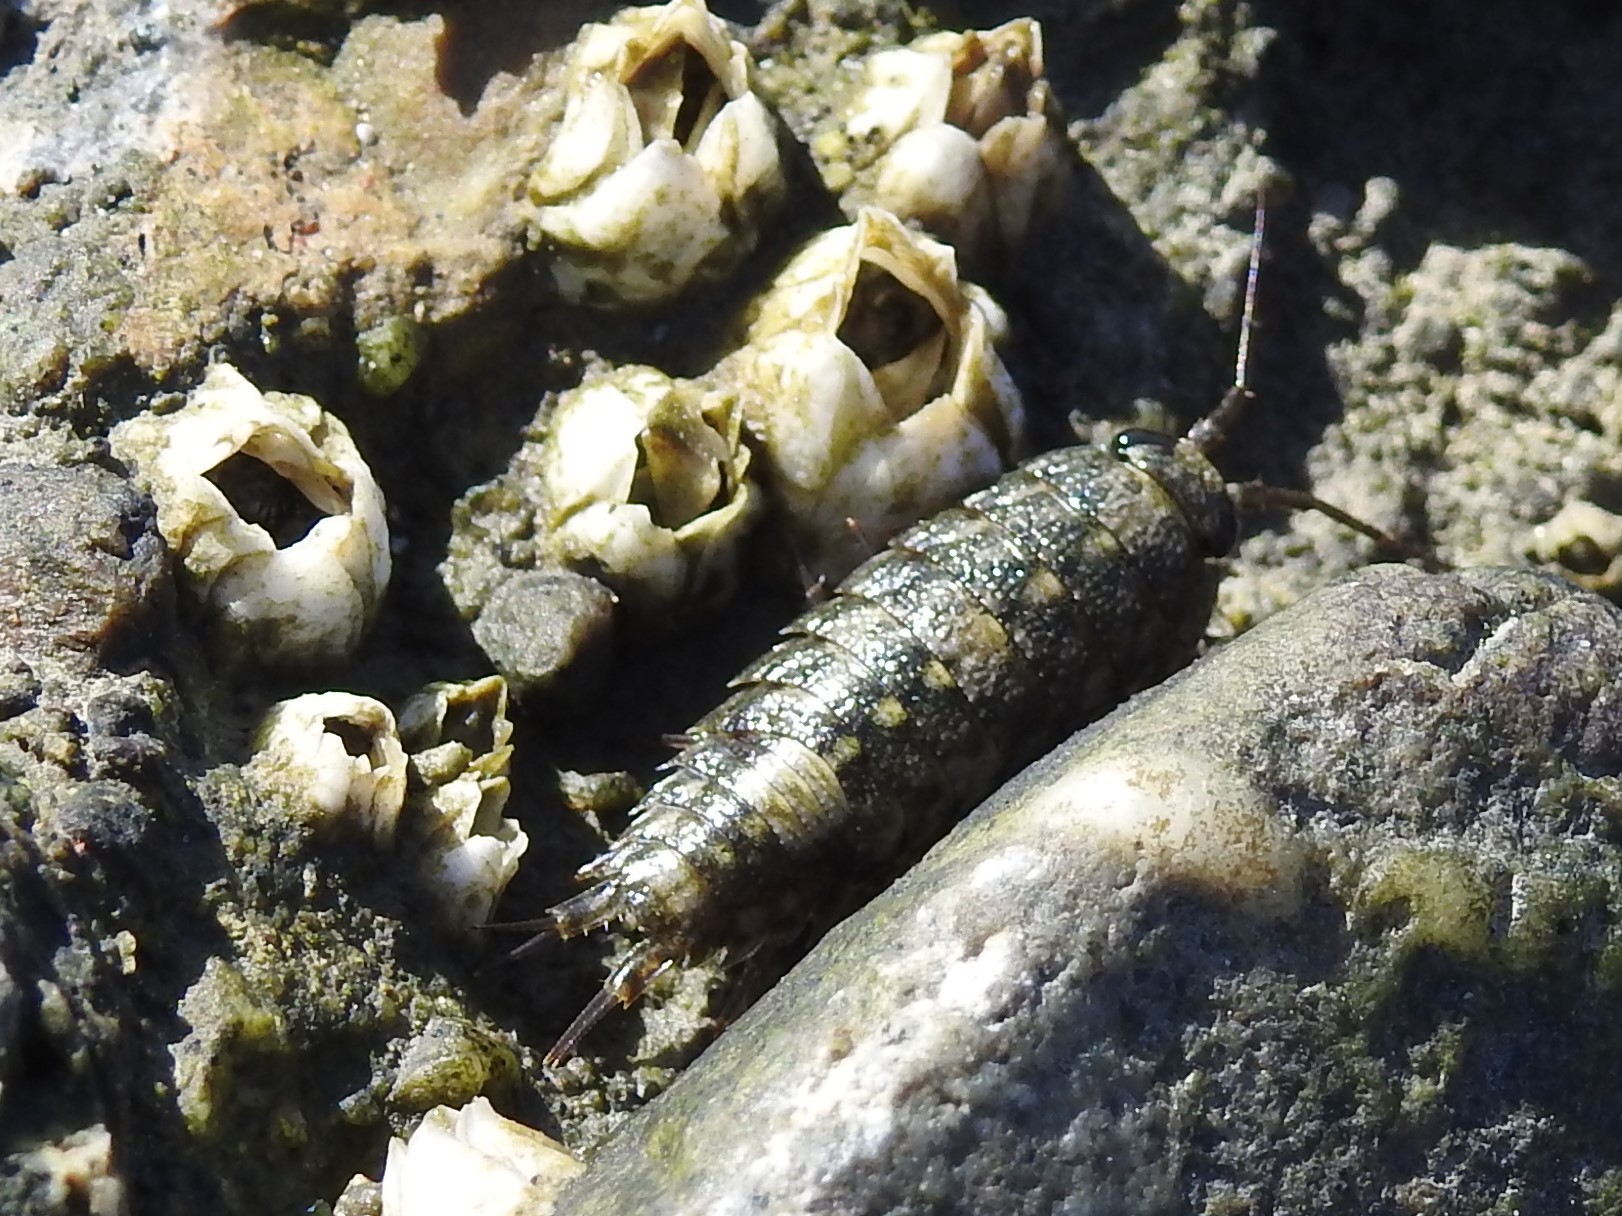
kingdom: Animalia
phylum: Arthropoda
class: Malacostraca
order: Isopoda
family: Ligiidae
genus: Ligia
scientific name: Ligia occidentalis
